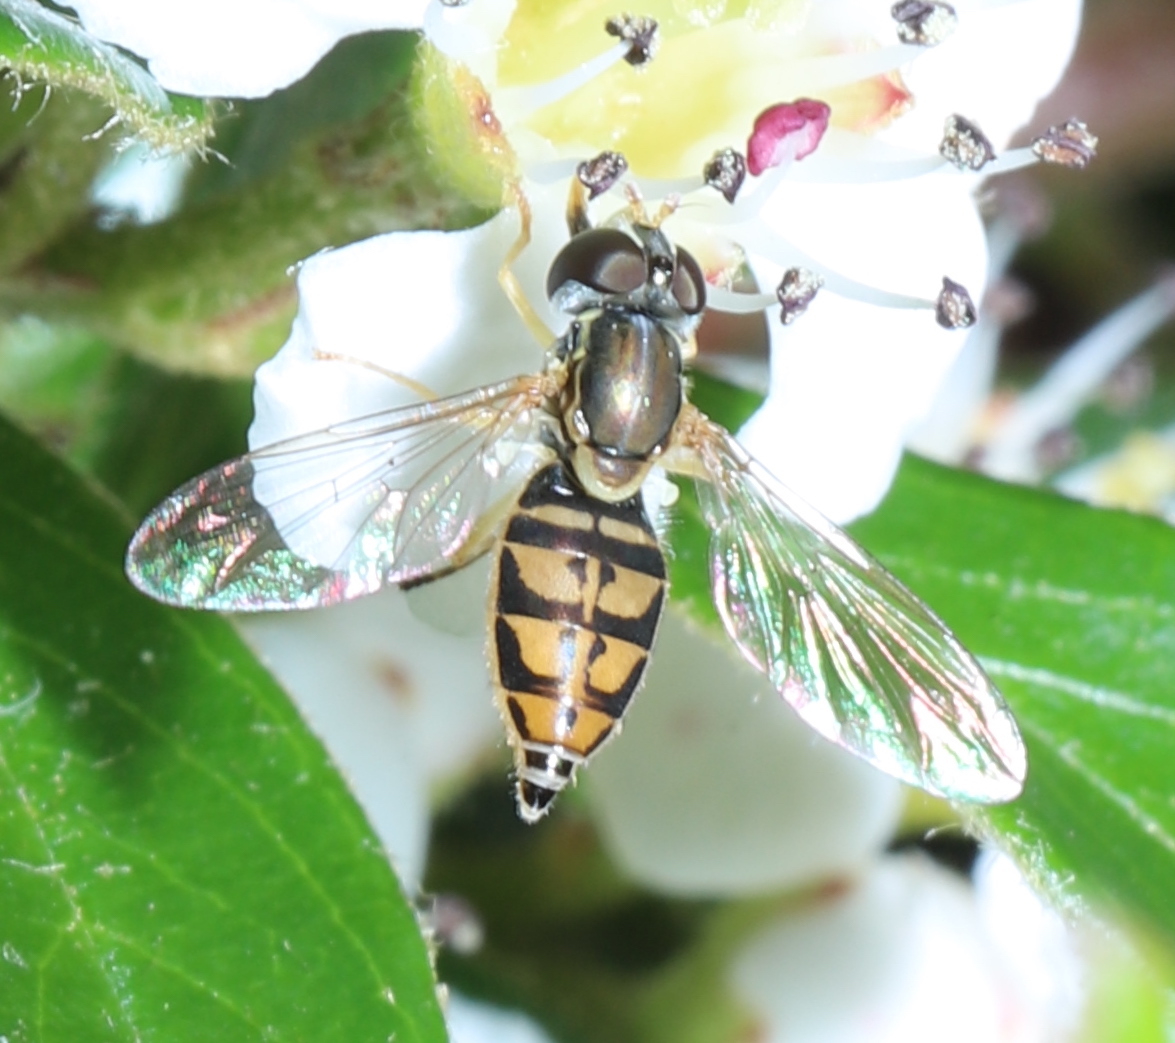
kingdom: Animalia
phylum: Arthropoda
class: Insecta
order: Diptera
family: Syrphidae
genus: Toxomerus
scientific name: Toxomerus marginatus
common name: Syrphid fly
